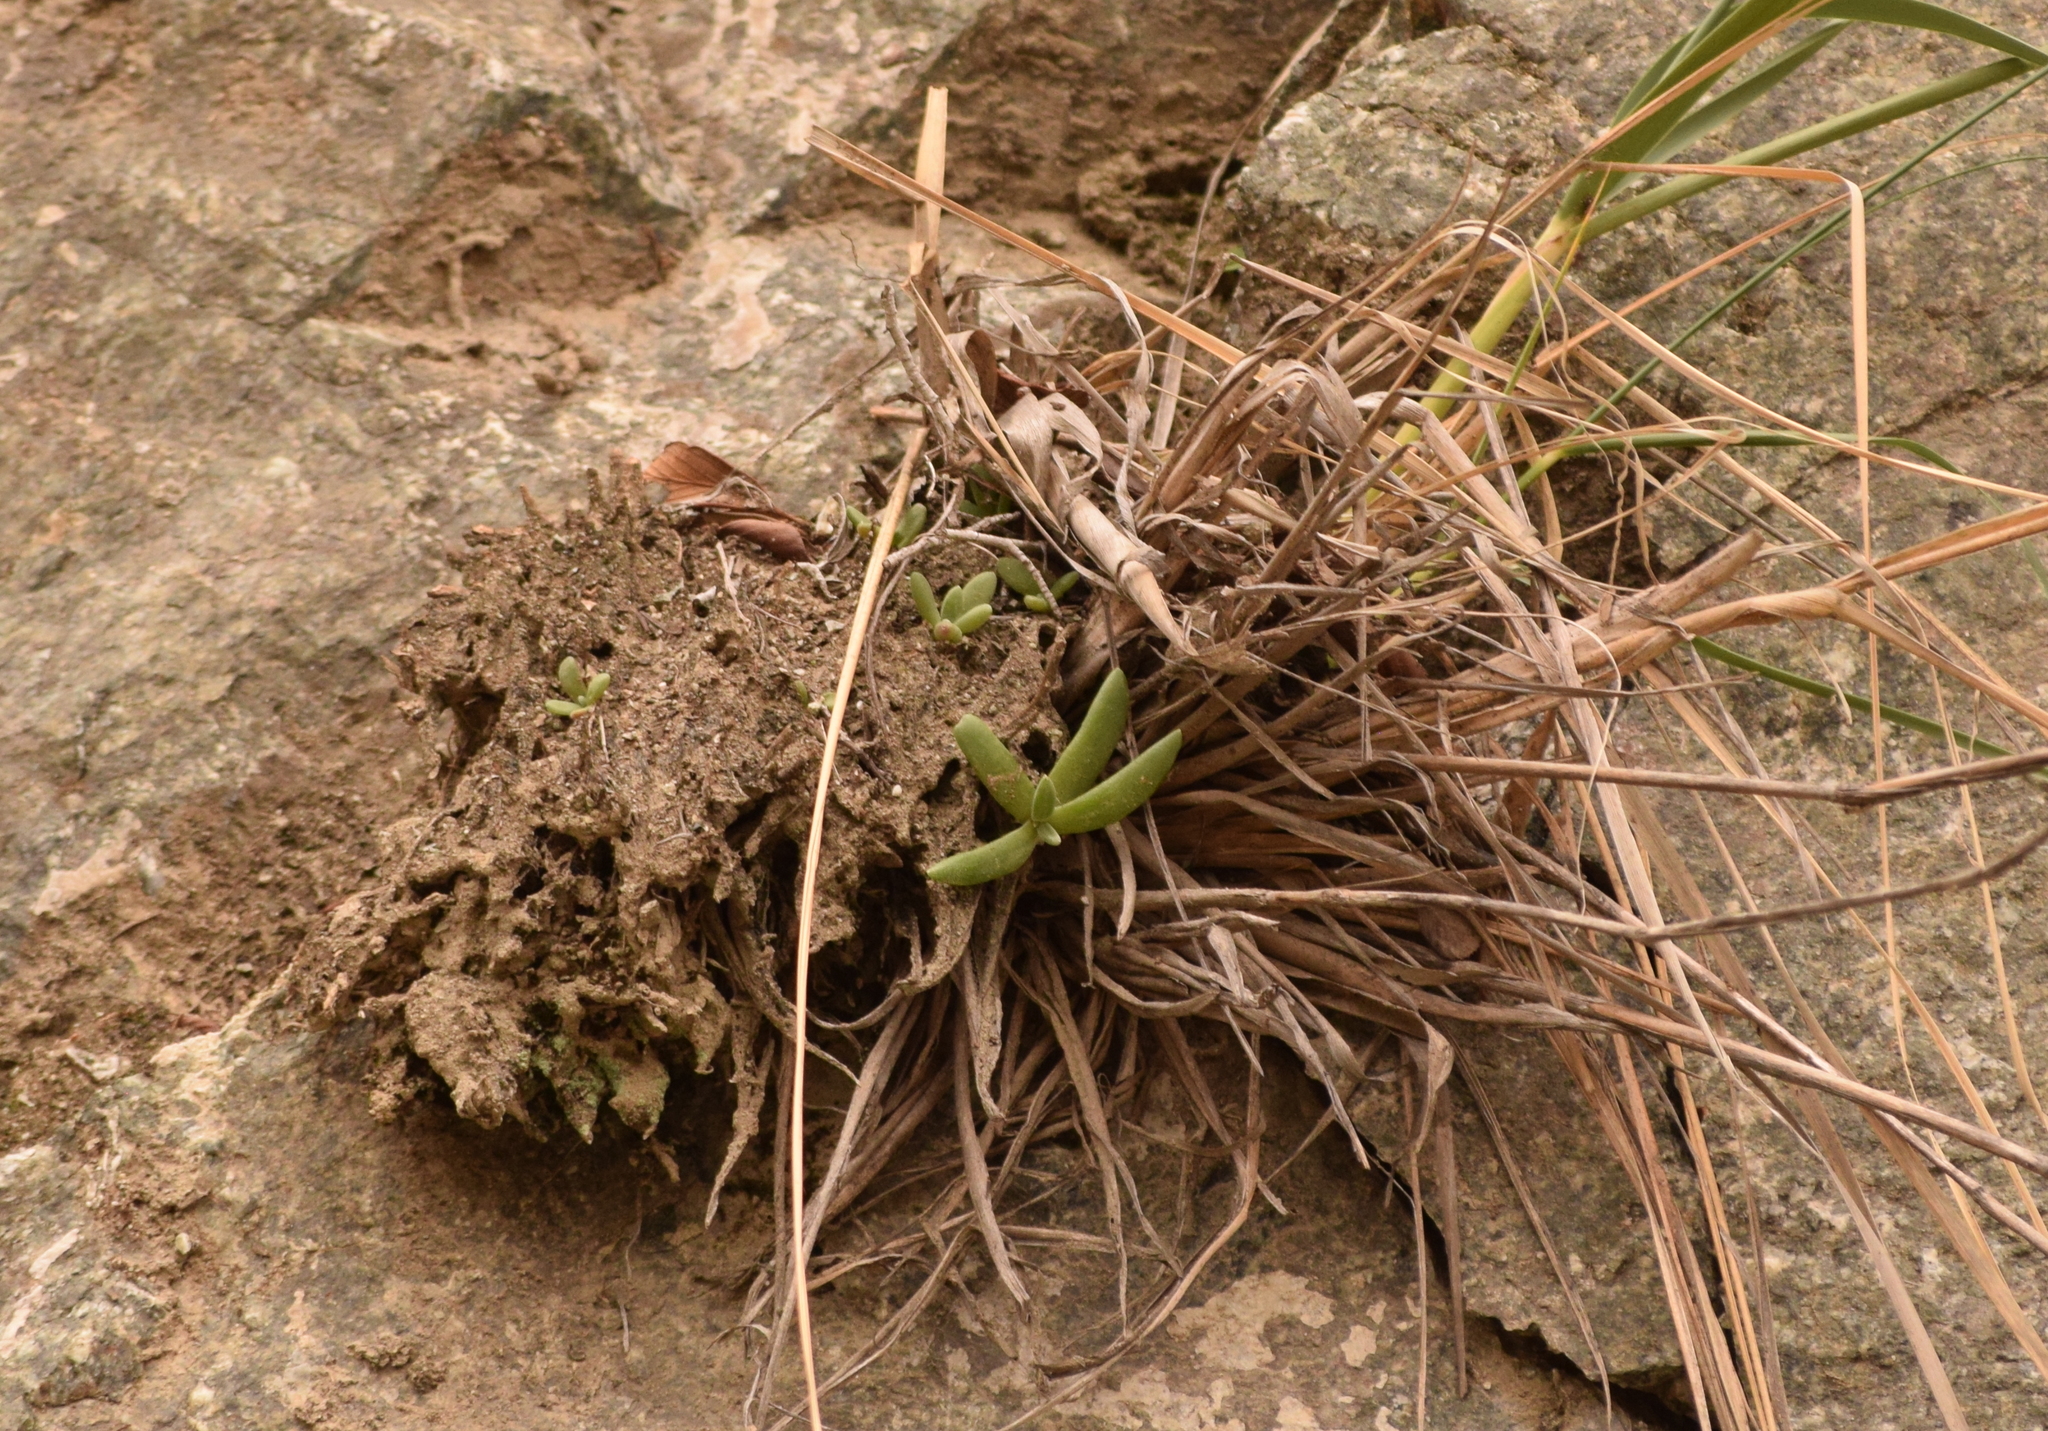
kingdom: Plantae
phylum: Tracheophyta
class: Magnoliopsida
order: Saxifragales
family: Crassulaceae
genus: Dudleya
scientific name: Dudleya densiflora
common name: San gabriel mountains dudleya
